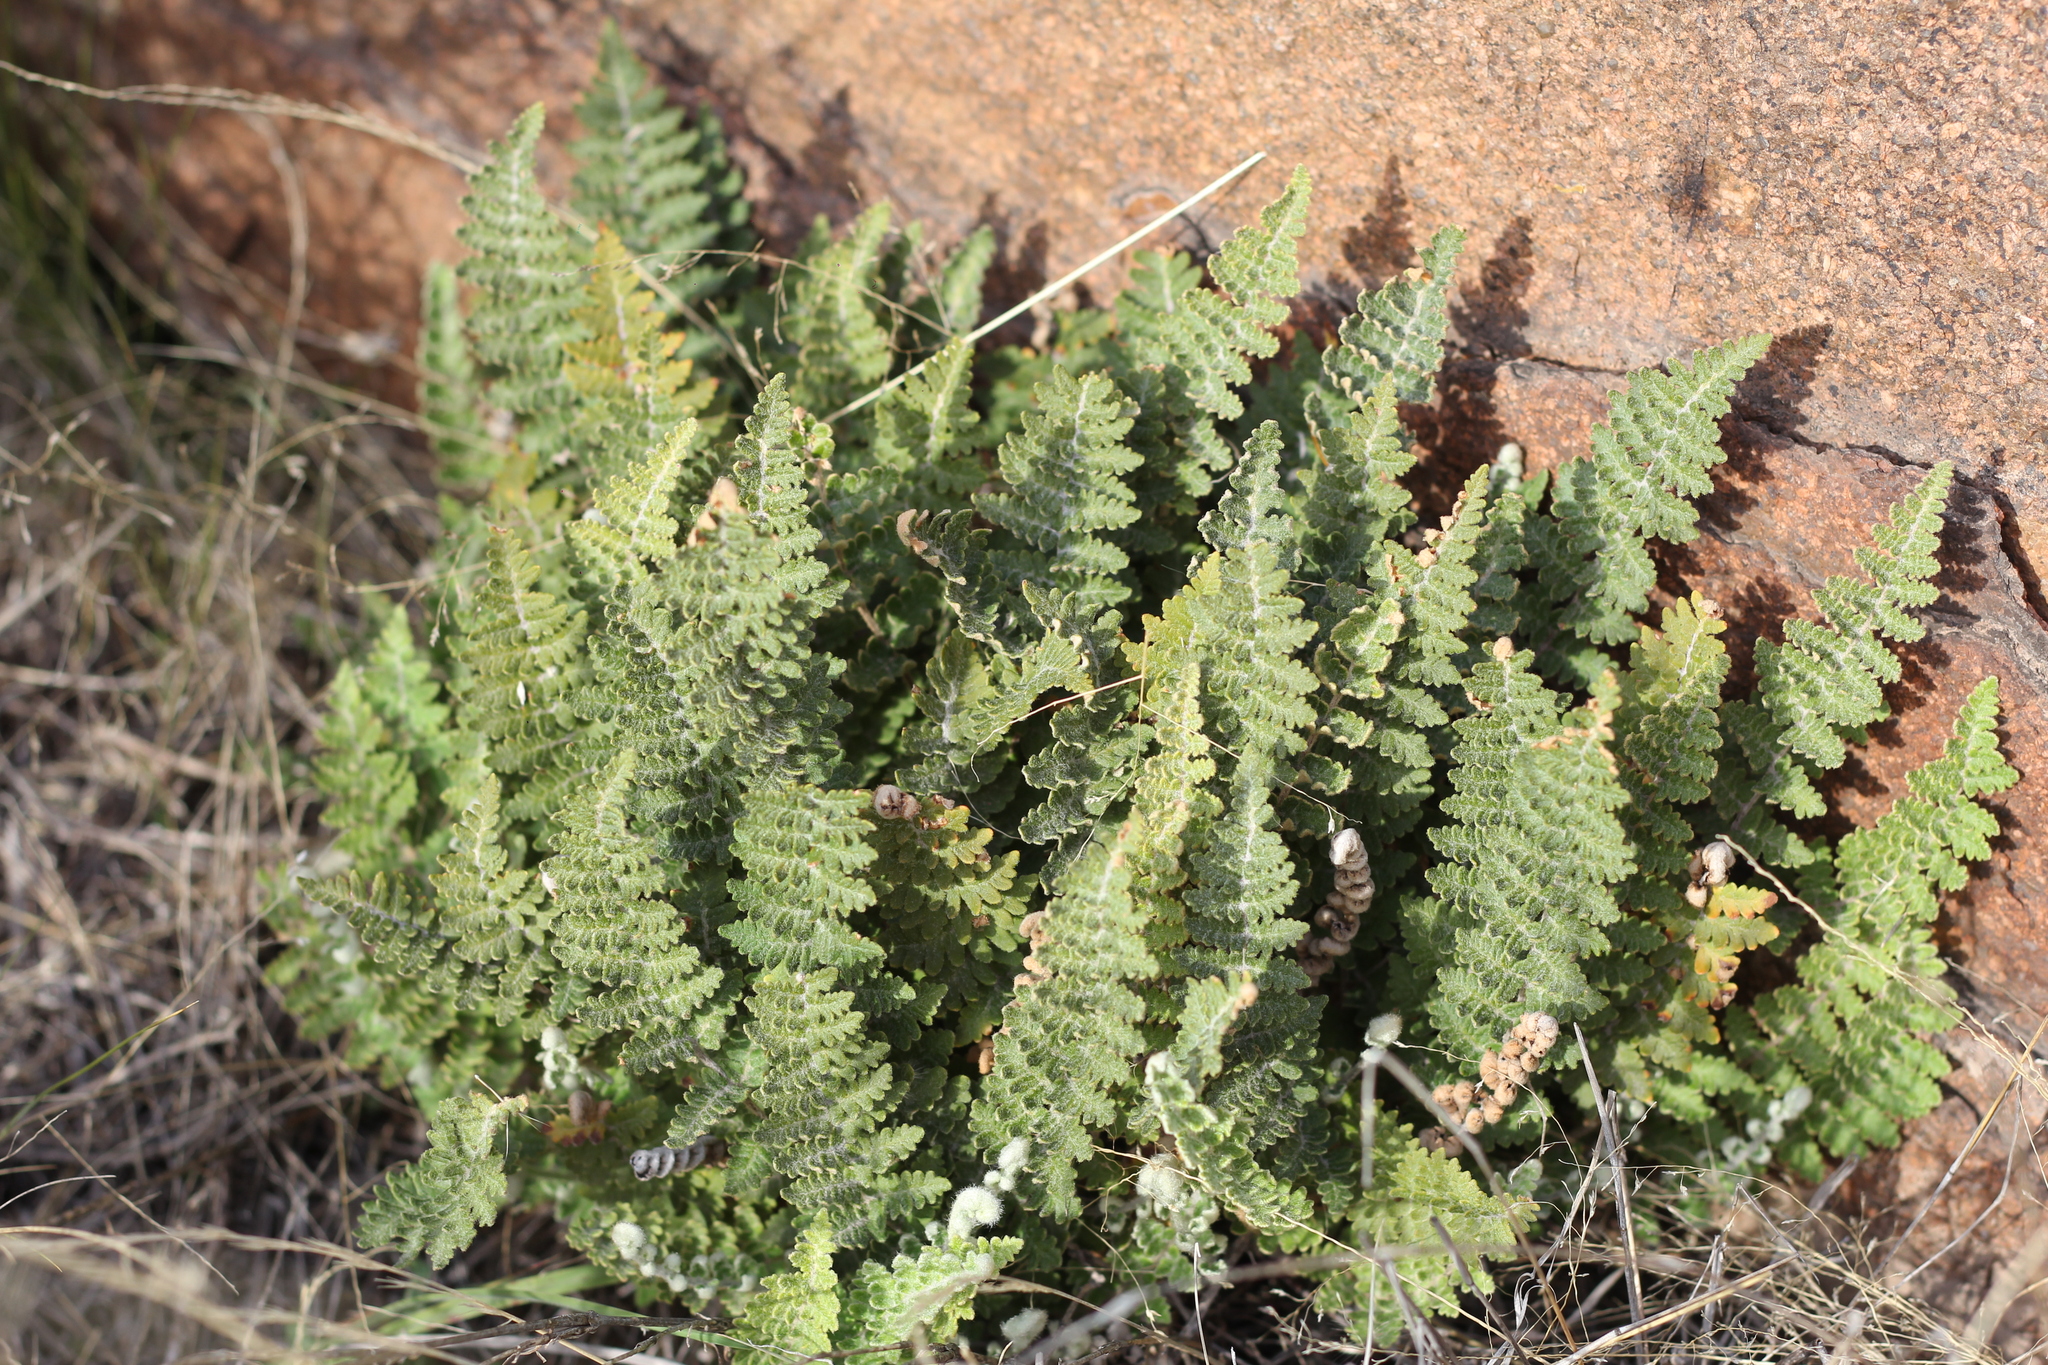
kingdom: Plantae
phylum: Tracheophyta
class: Polypodiopsida
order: Polypodiales
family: Pteridaceae
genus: Cheilanthes
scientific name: Cheilanthes buchtienii
